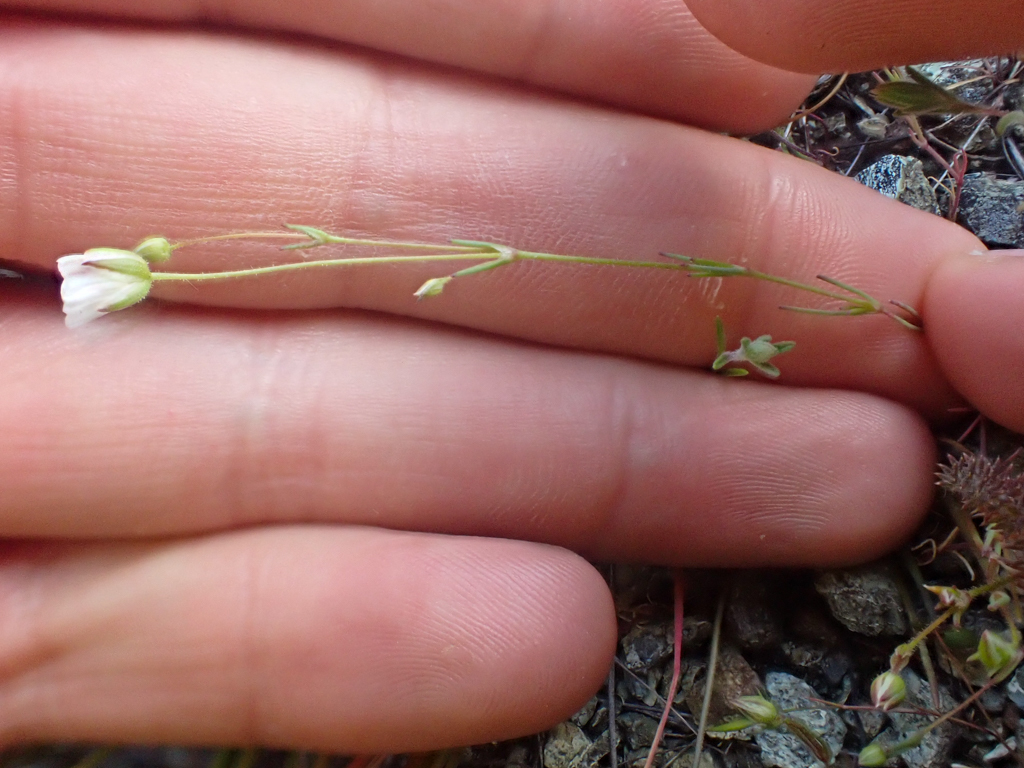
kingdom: Plantae
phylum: Tracheophyta
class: Magnoliopsida
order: Caryophyllales
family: Caryophyllaceae
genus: Sabulina
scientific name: Sabulina douglasii
